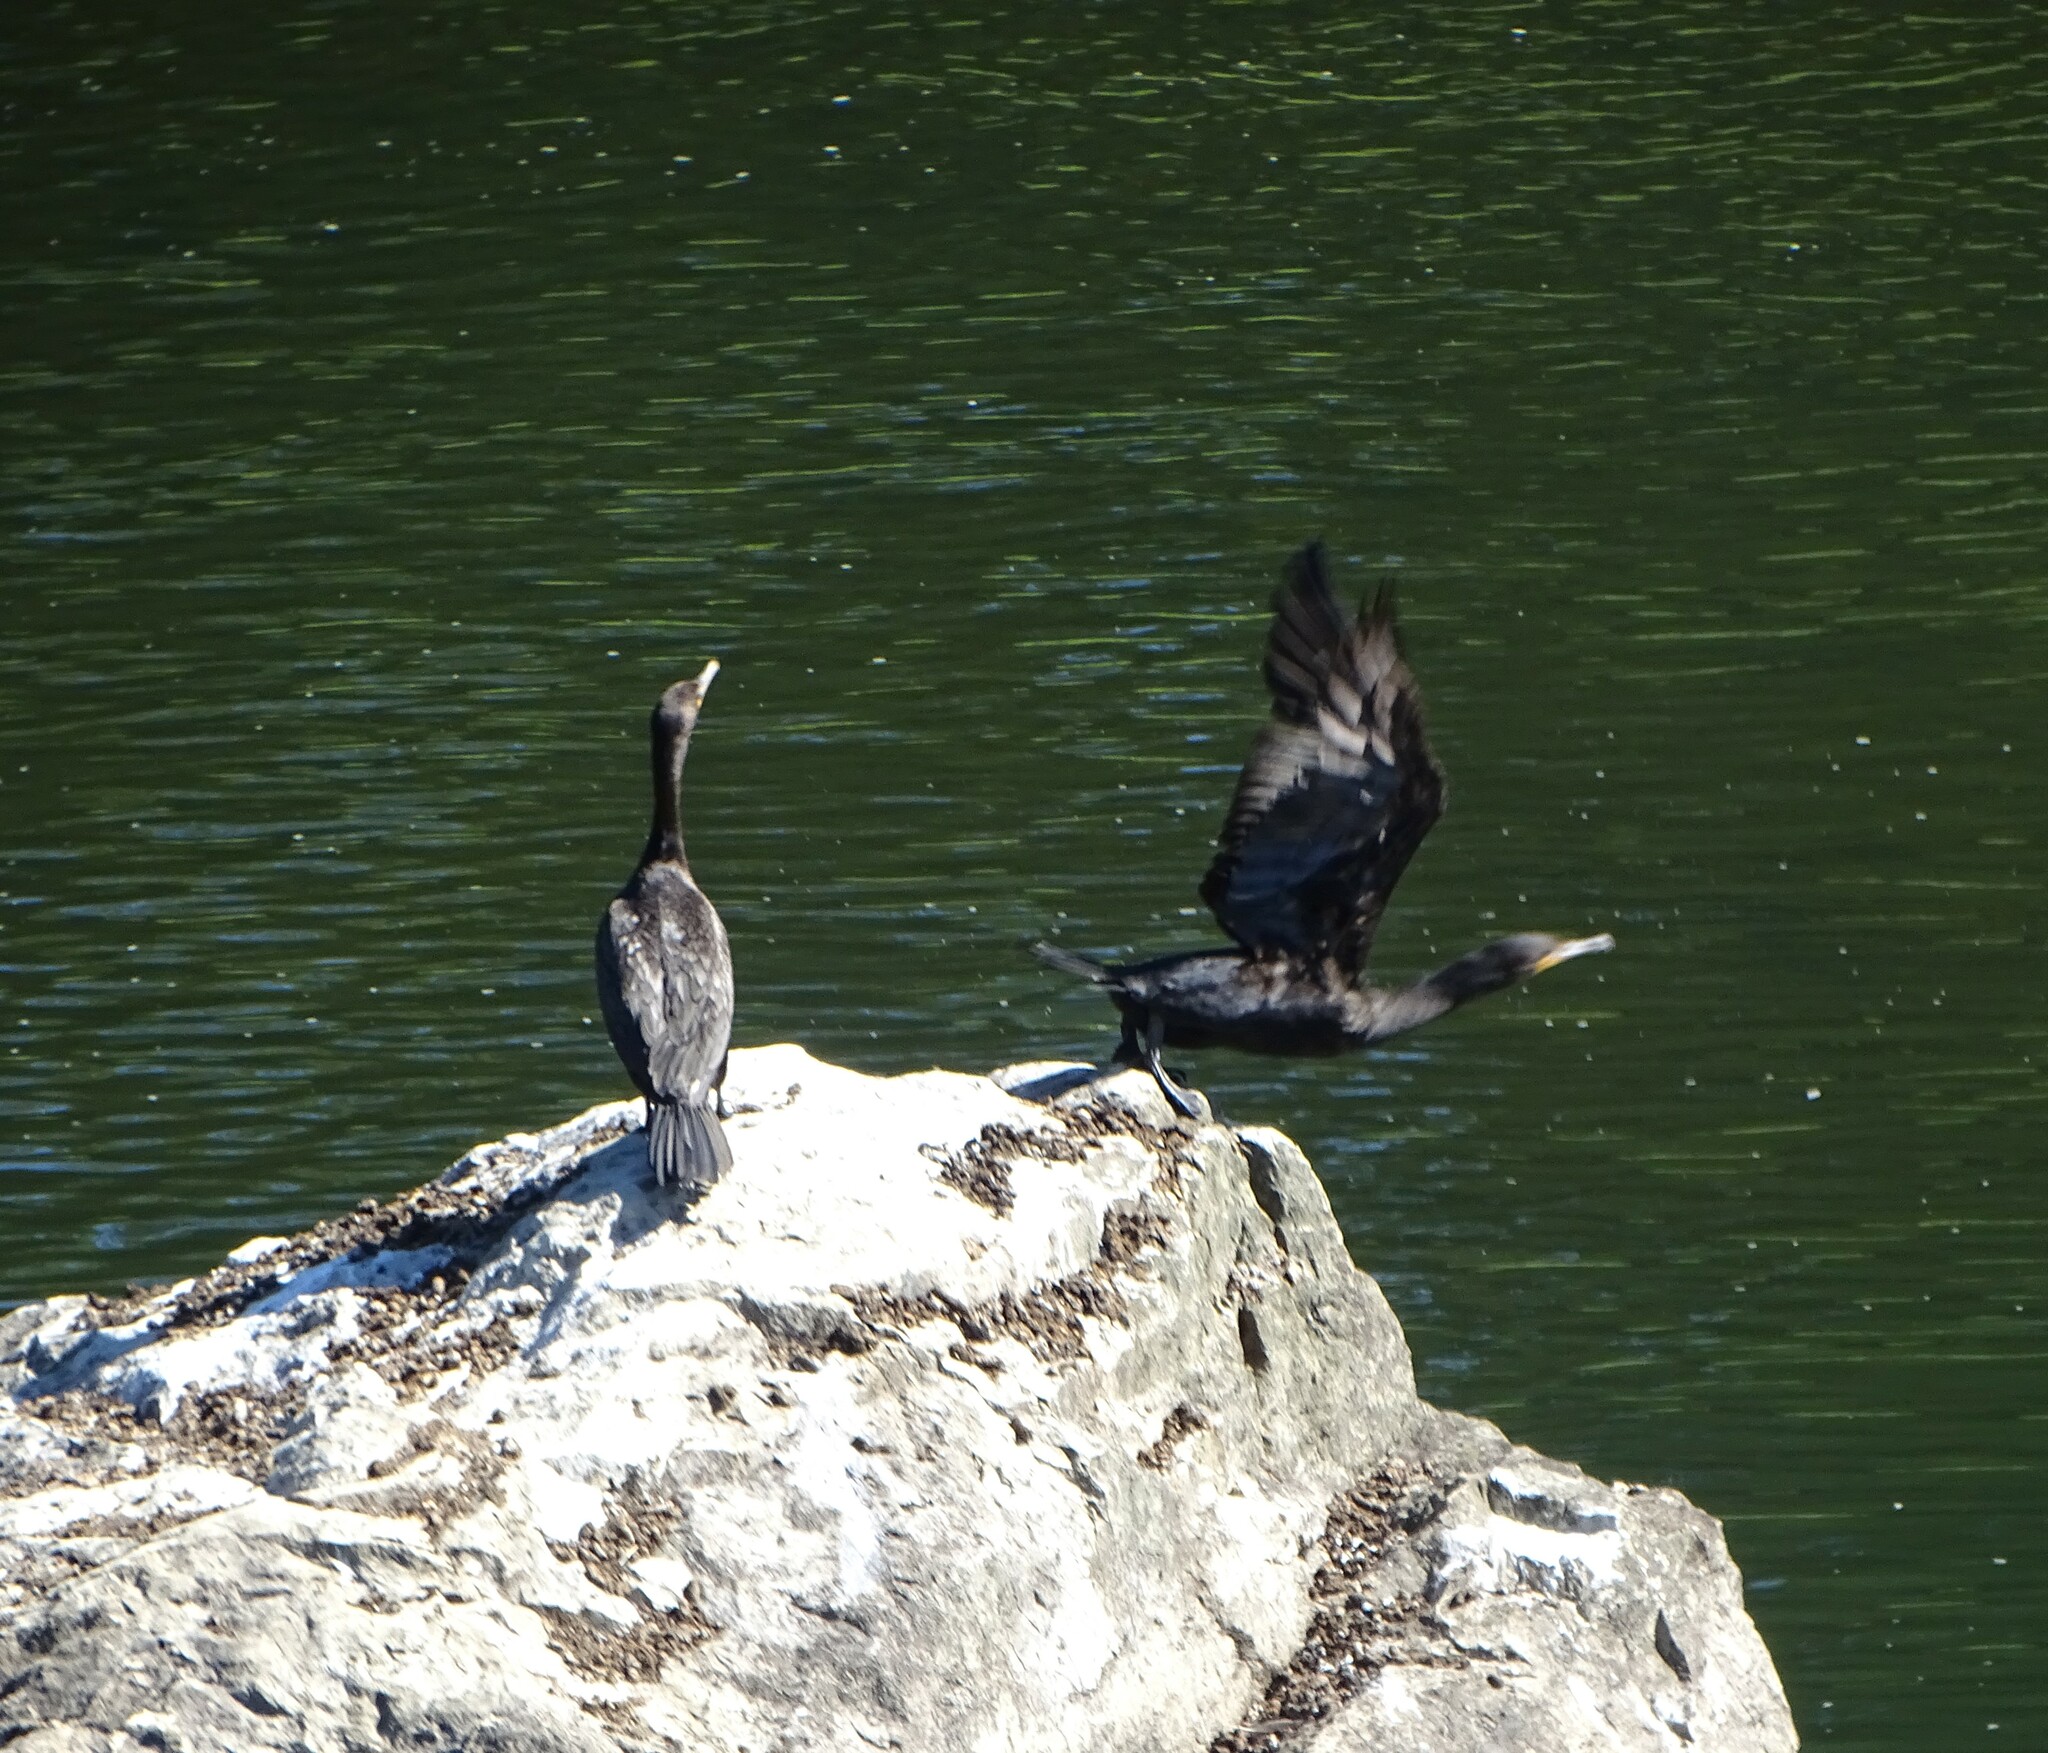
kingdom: Animalia
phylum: Chordata
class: Aves
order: Suliformes
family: Phalacrocoracidae
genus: Phalacrocorax
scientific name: Phalacrocorax auritus
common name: Double-crested cormorant
